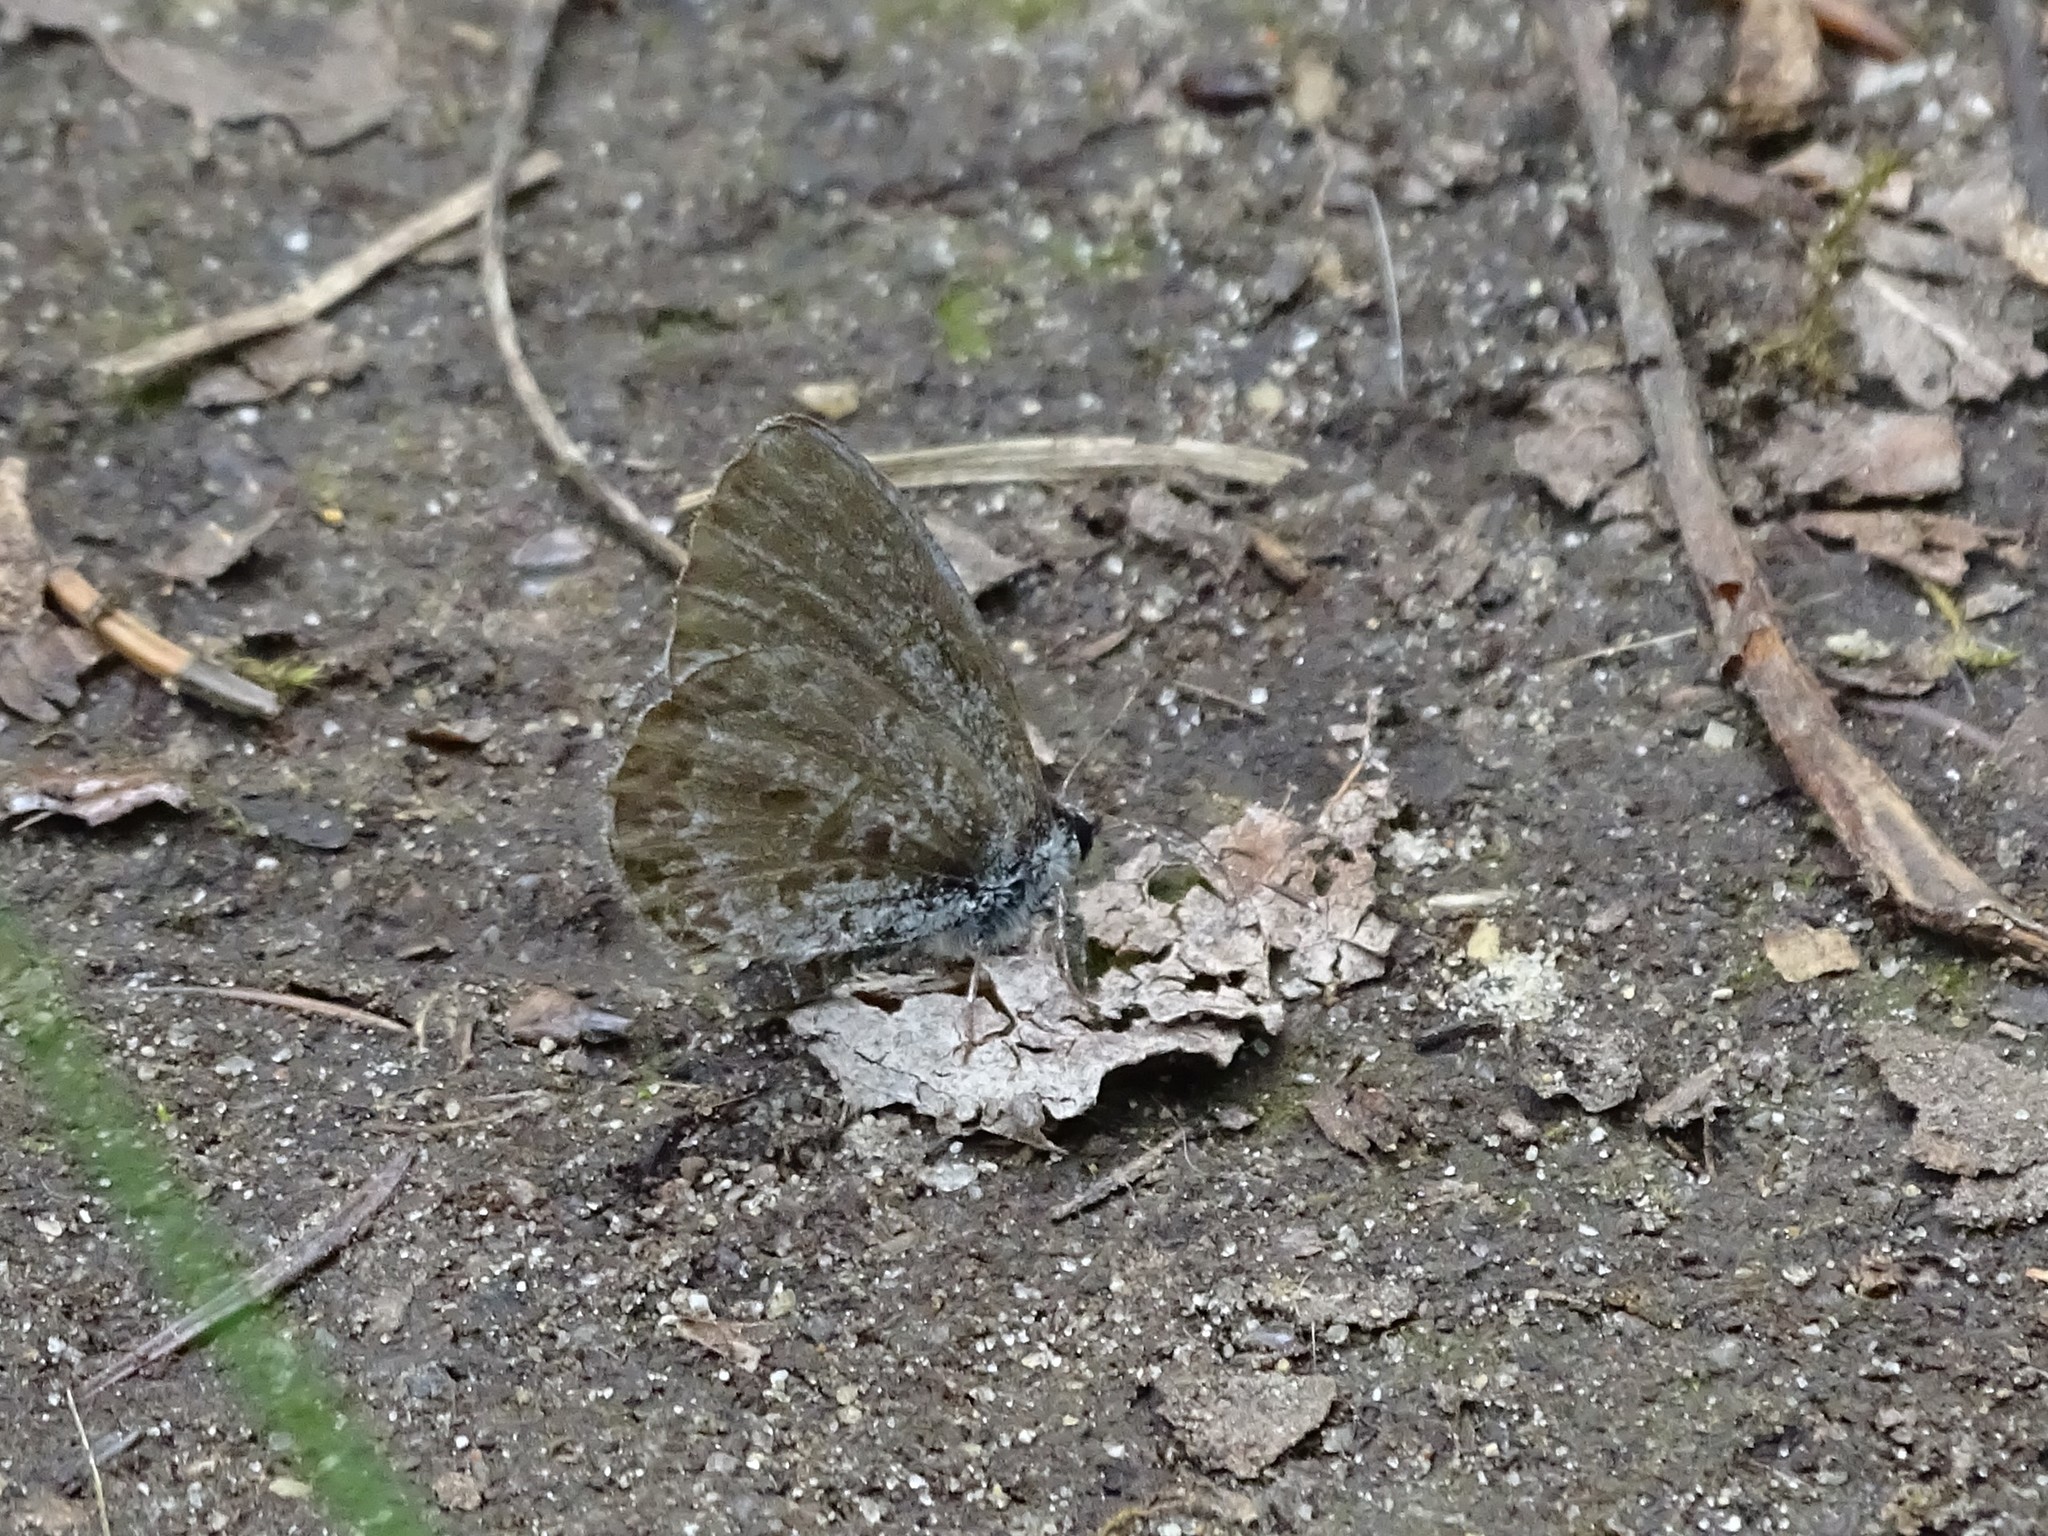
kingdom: Animalia
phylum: Arthropoda
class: Insecta
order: Lepidoptera
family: Lycaenidae
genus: Celastrina
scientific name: Celastrina lucia
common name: Lucia azure
